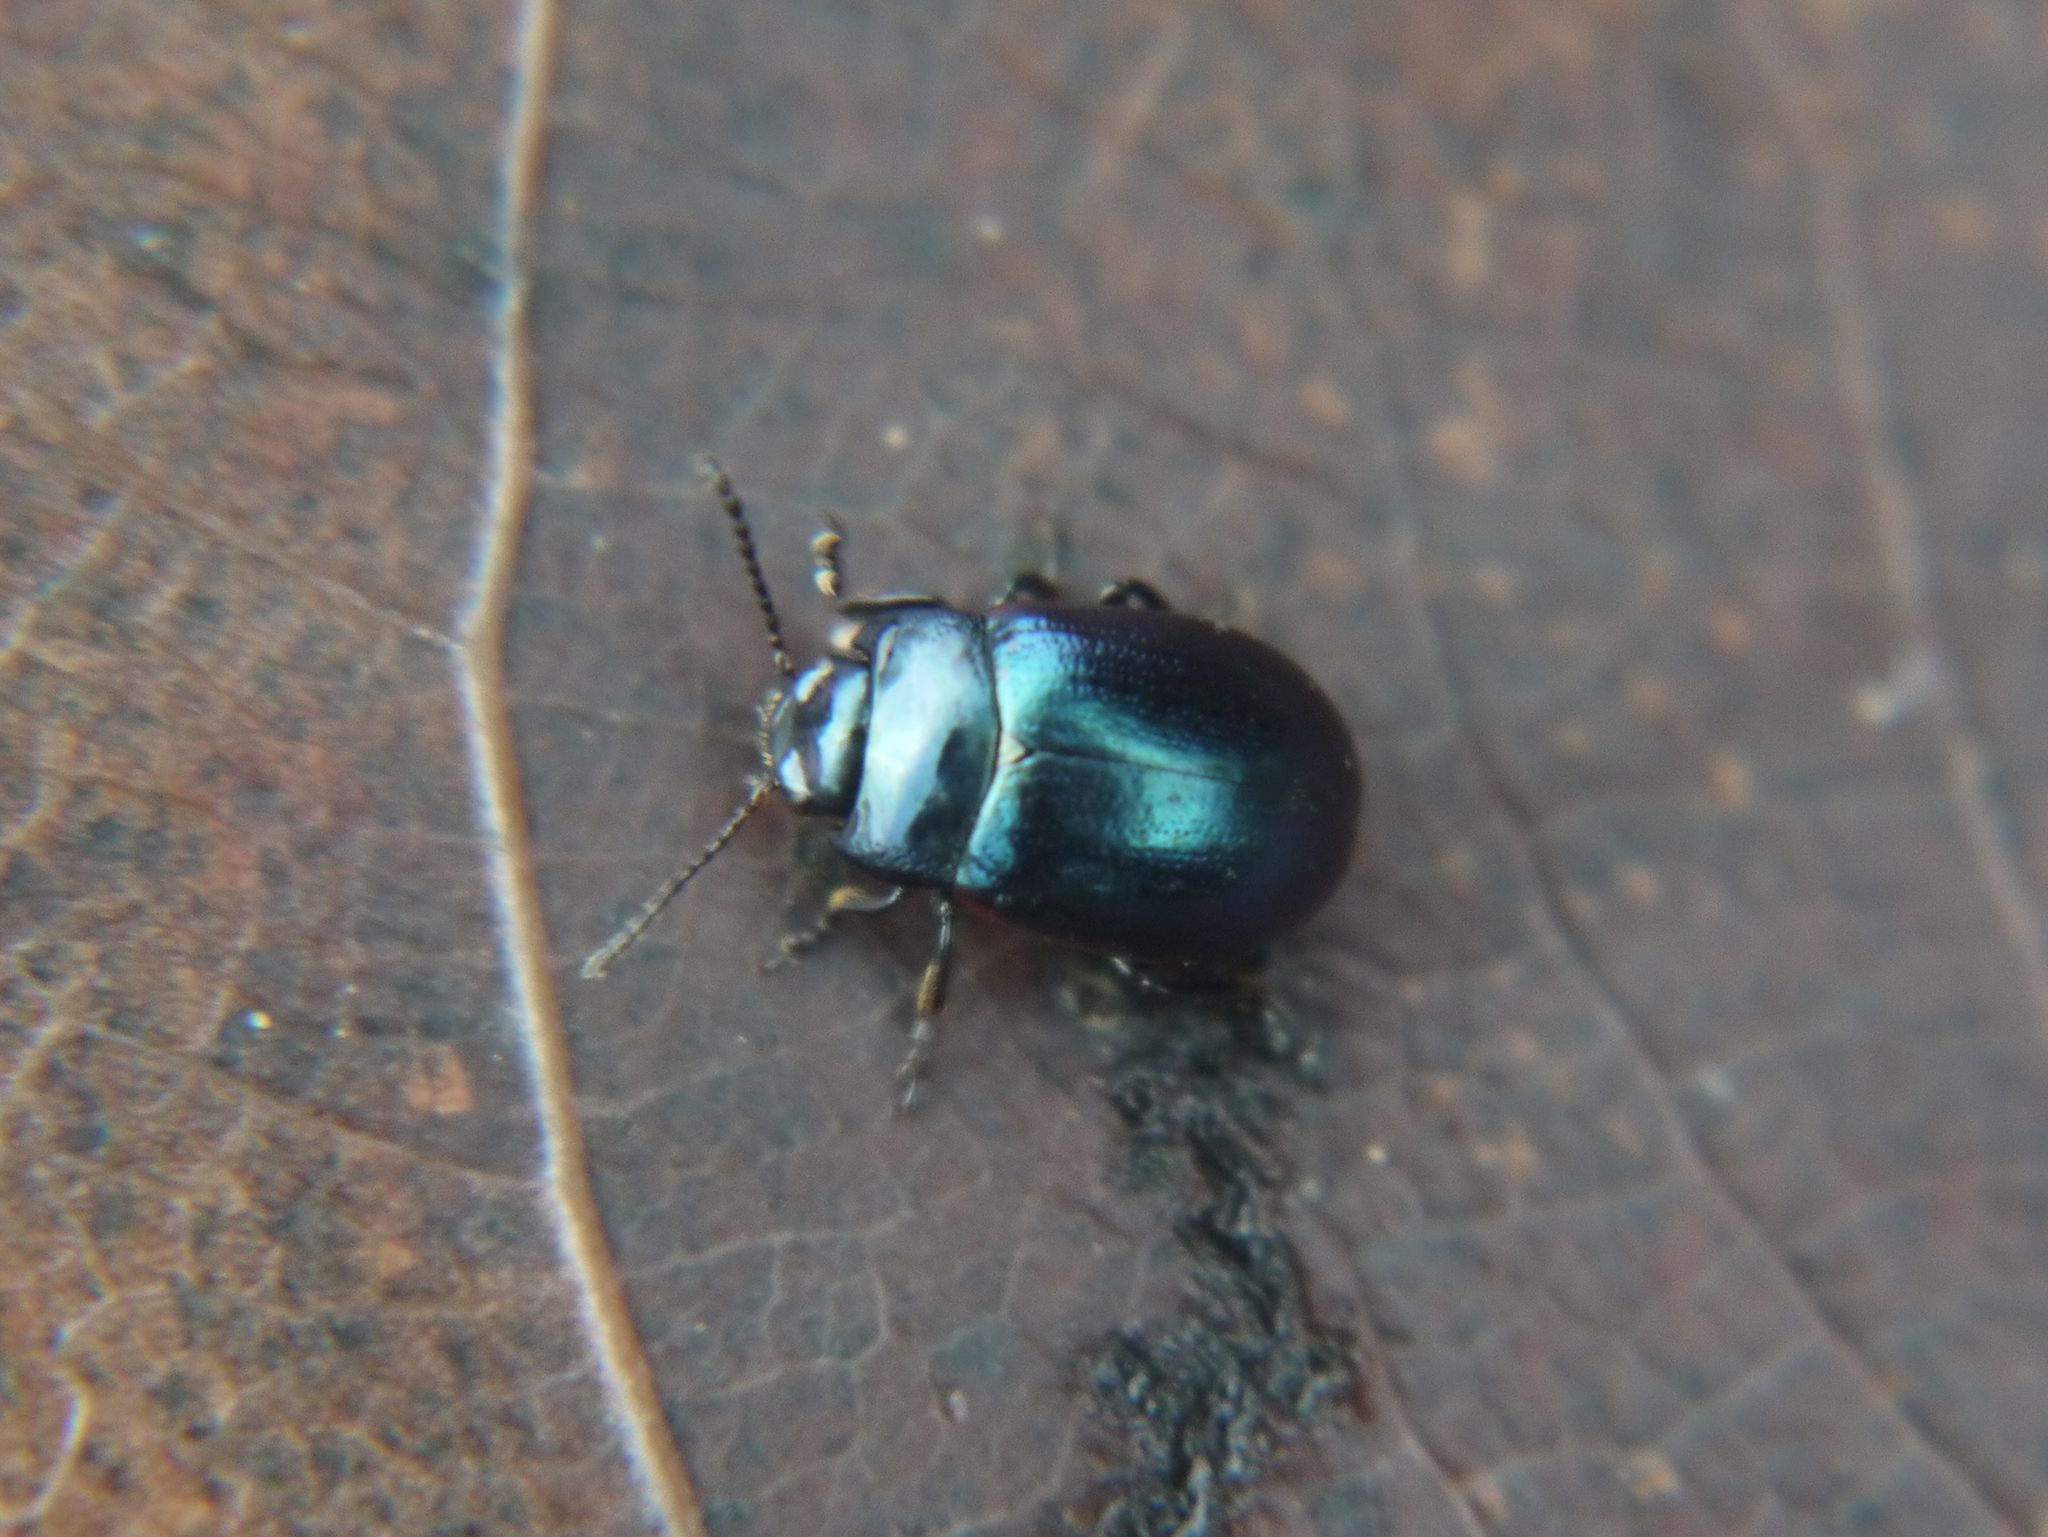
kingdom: Animalia
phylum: Arthropoda
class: Insecta
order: Coleoptera
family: Chrysomelidae
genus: Chrysolina
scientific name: Chrysolina analis
